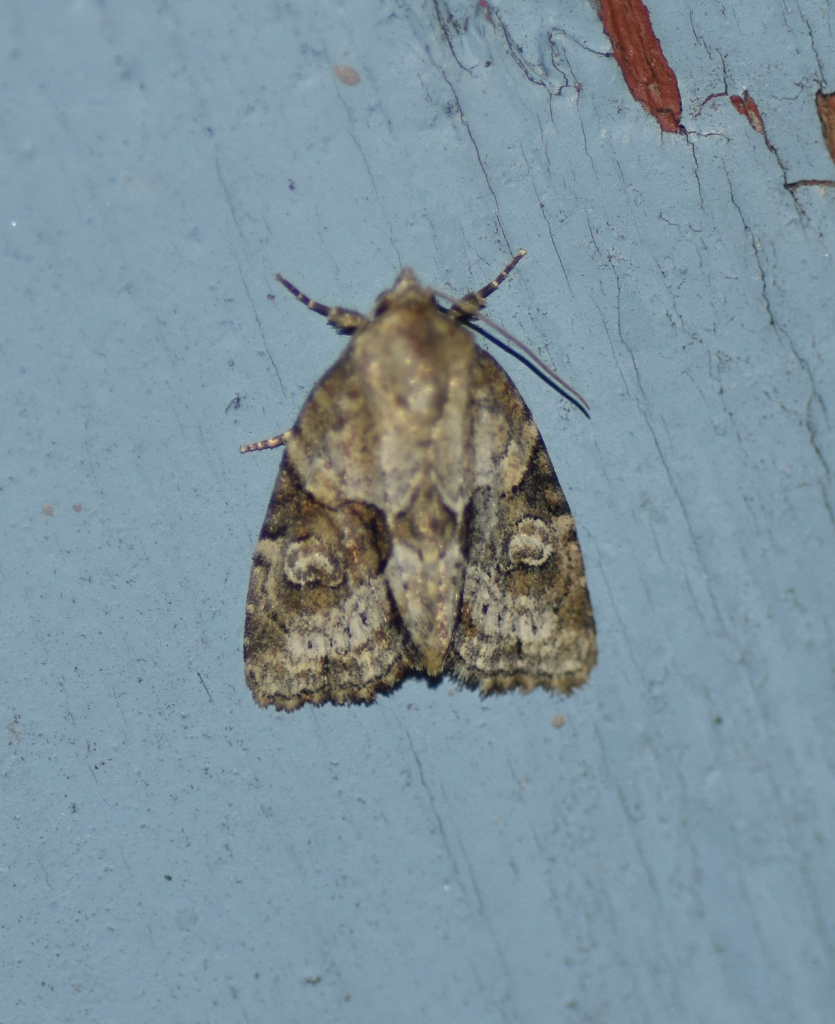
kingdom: Animalia
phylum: Arthropoda
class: Insecta
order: Lepidoptera
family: Noctuidae
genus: Neoligia
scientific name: Neoligia exhausta
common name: Exhausted brocade
